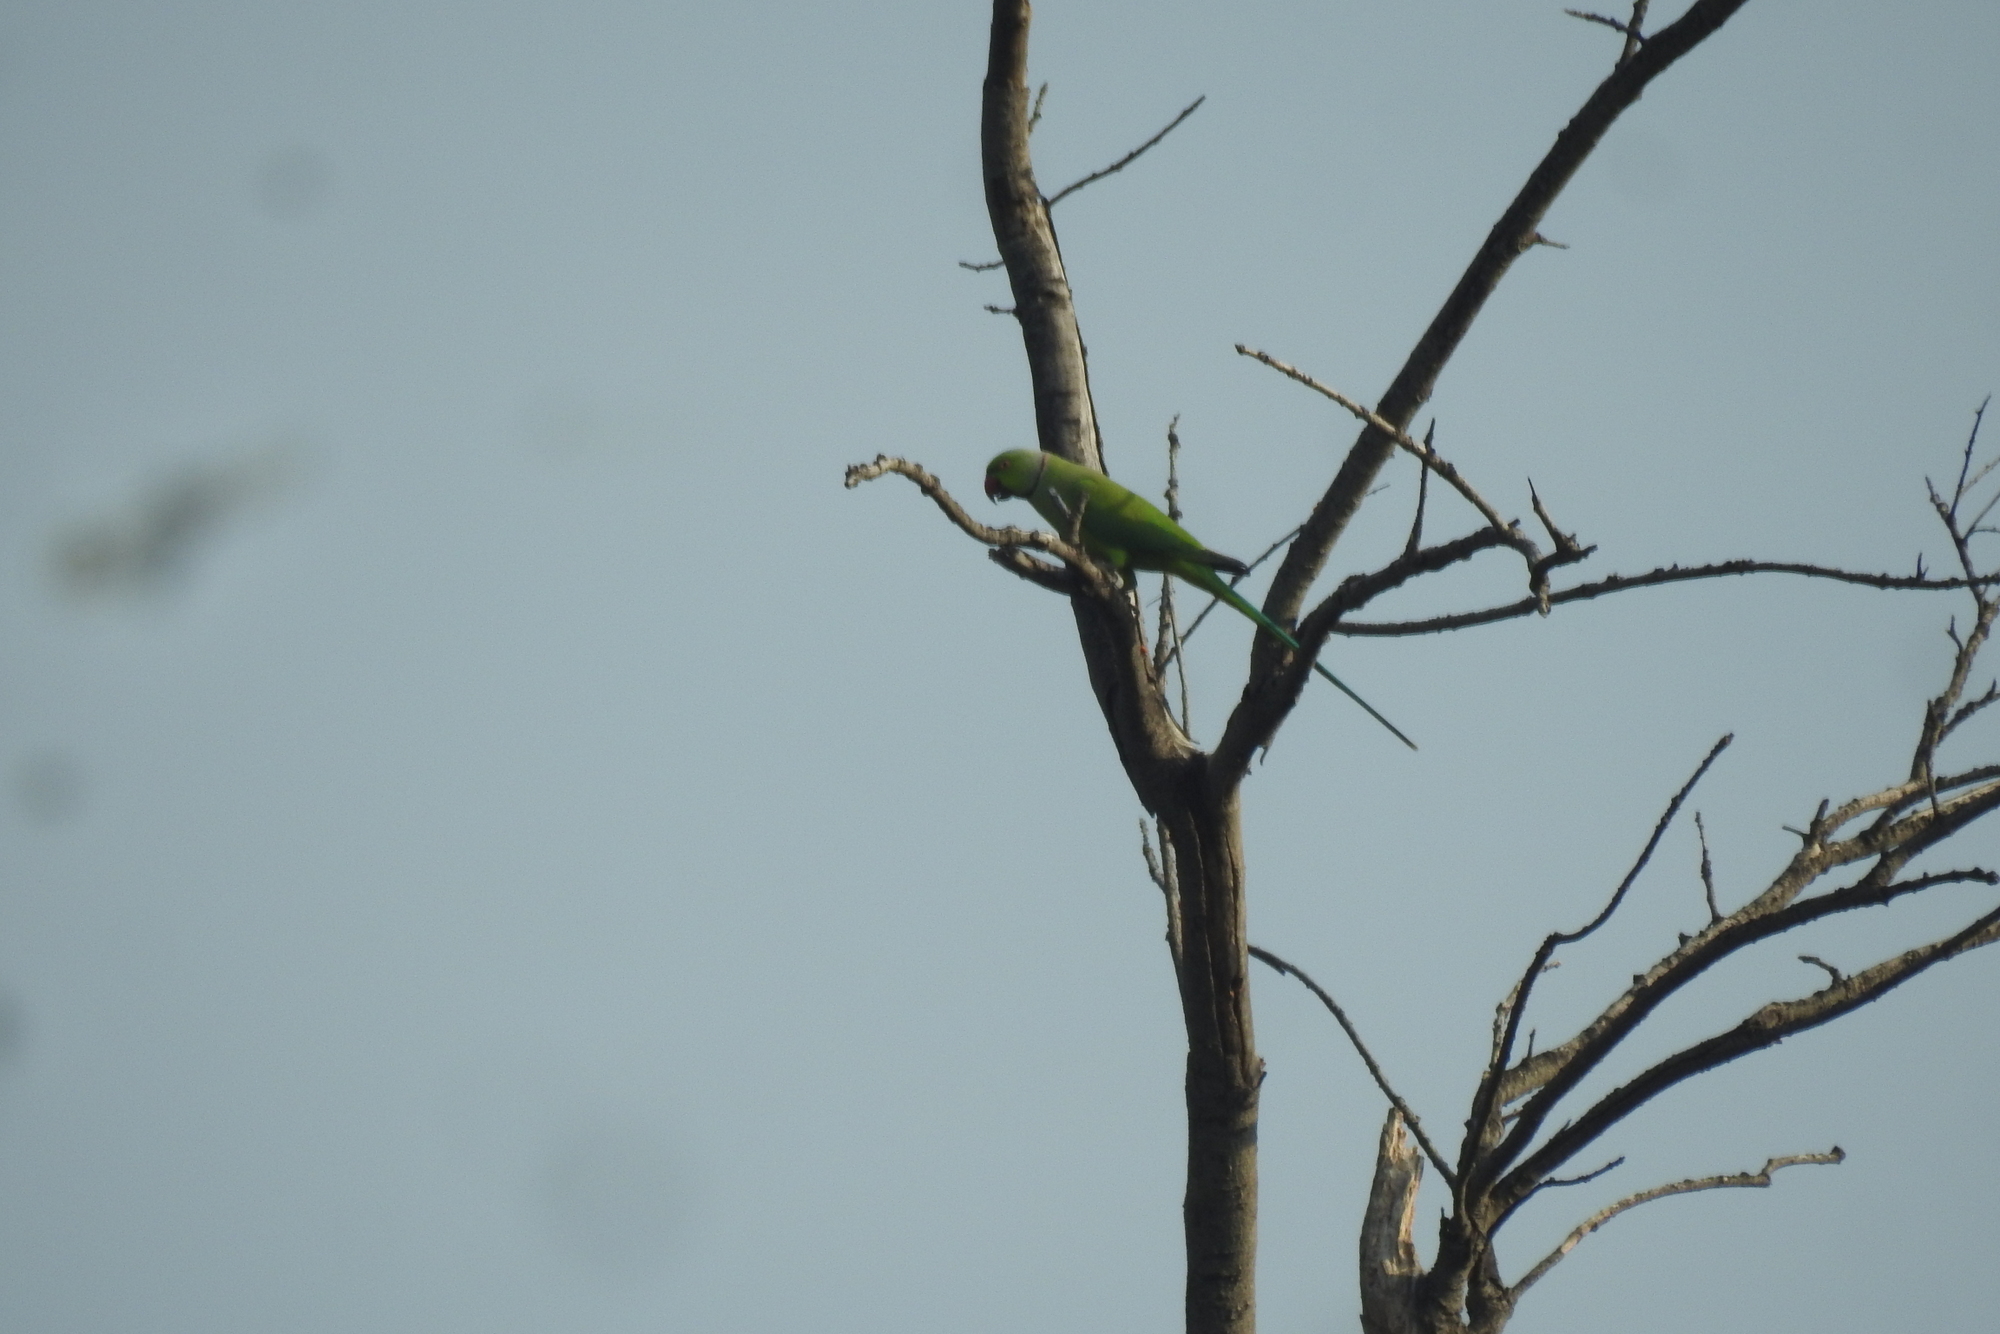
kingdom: Animalia
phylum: Chordata
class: Aves
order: Psittaciformes
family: Psittacidae
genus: Psittacula
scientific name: Psittacula krameri
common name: Rose-ringed parakeet
